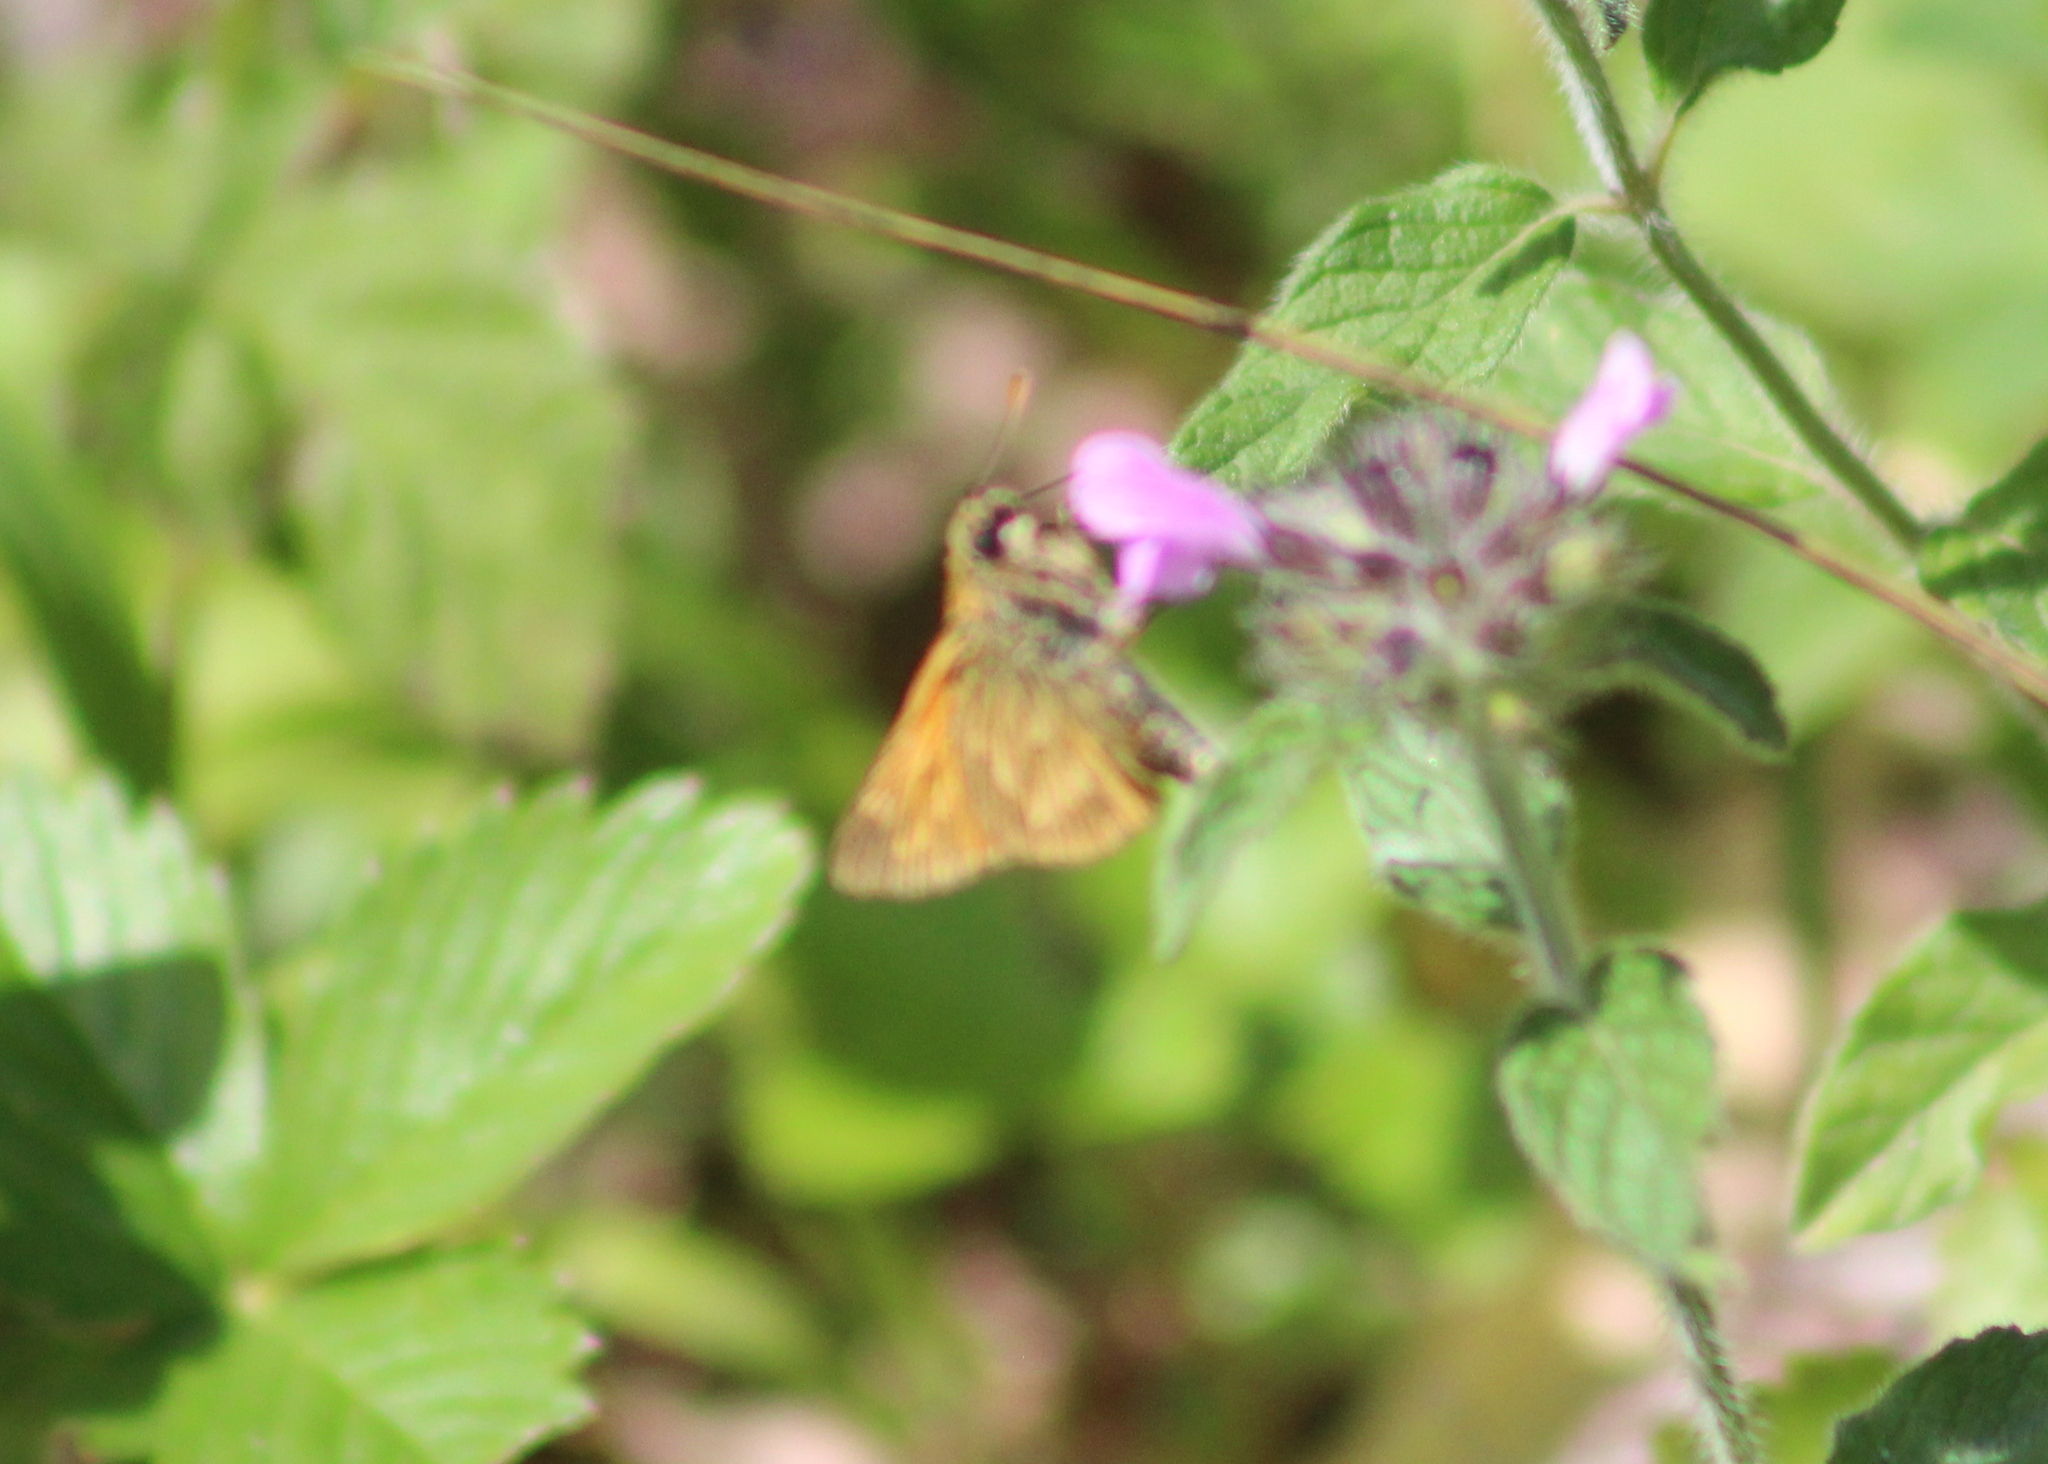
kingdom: Animalia
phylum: Arthropoda
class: Insecta
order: Lepidoptera
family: Hesperiidae
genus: Ochlodes
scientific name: Ochlodes venata
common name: Large skipper
